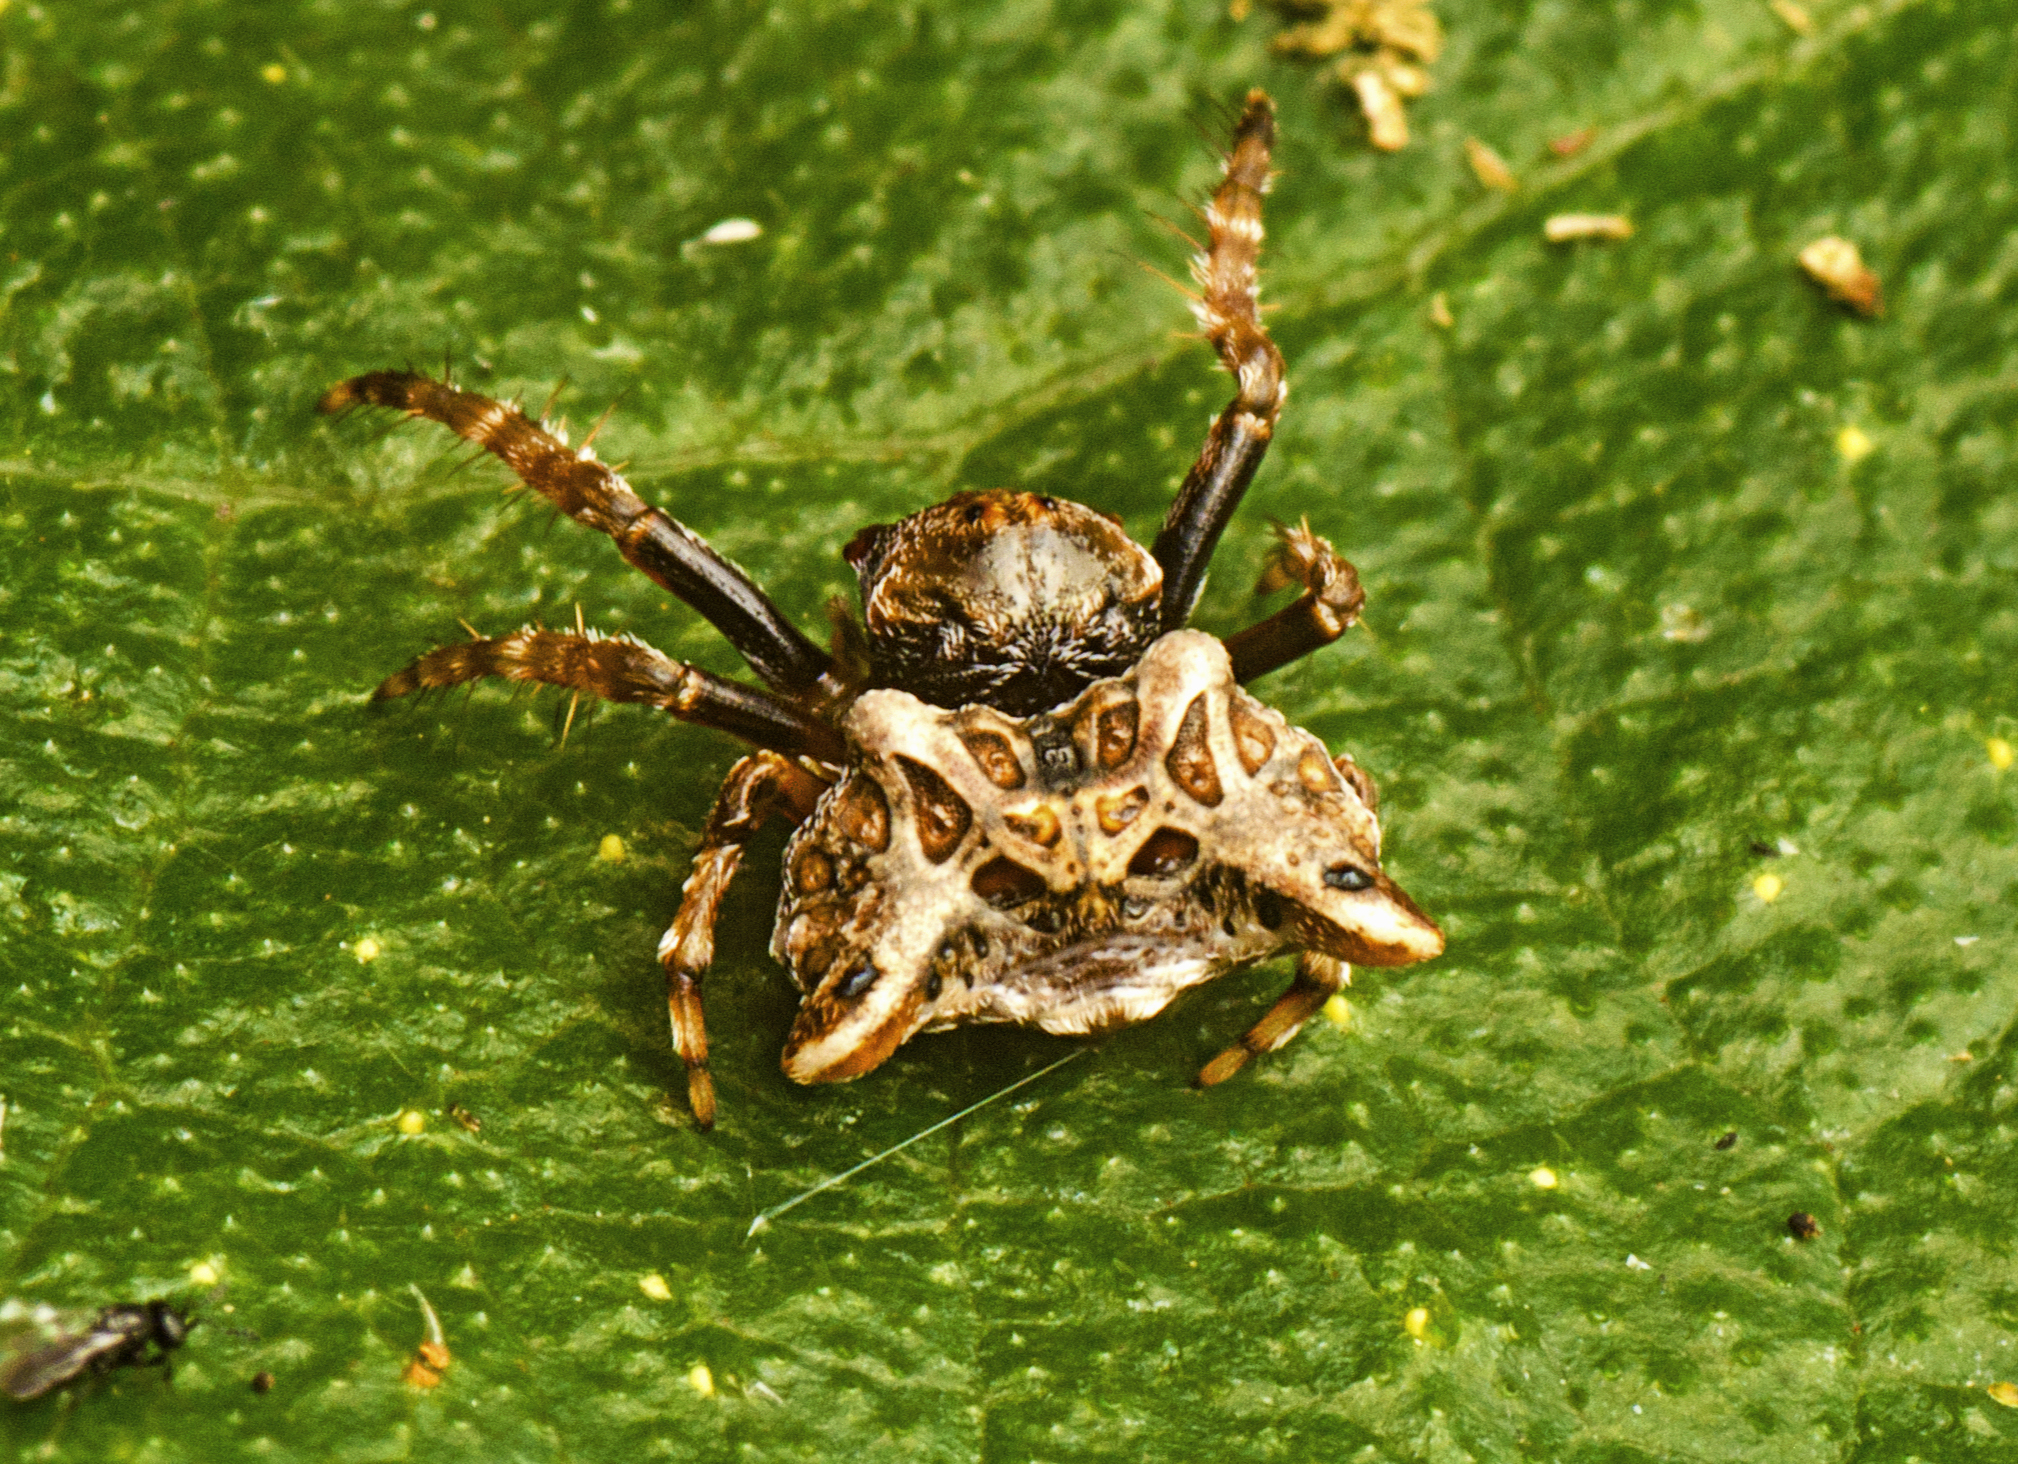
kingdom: Animalia
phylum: Arthropoda
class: Arachnida
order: Araneae
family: Arkyidae
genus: Arkys
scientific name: Arkys curtulus
